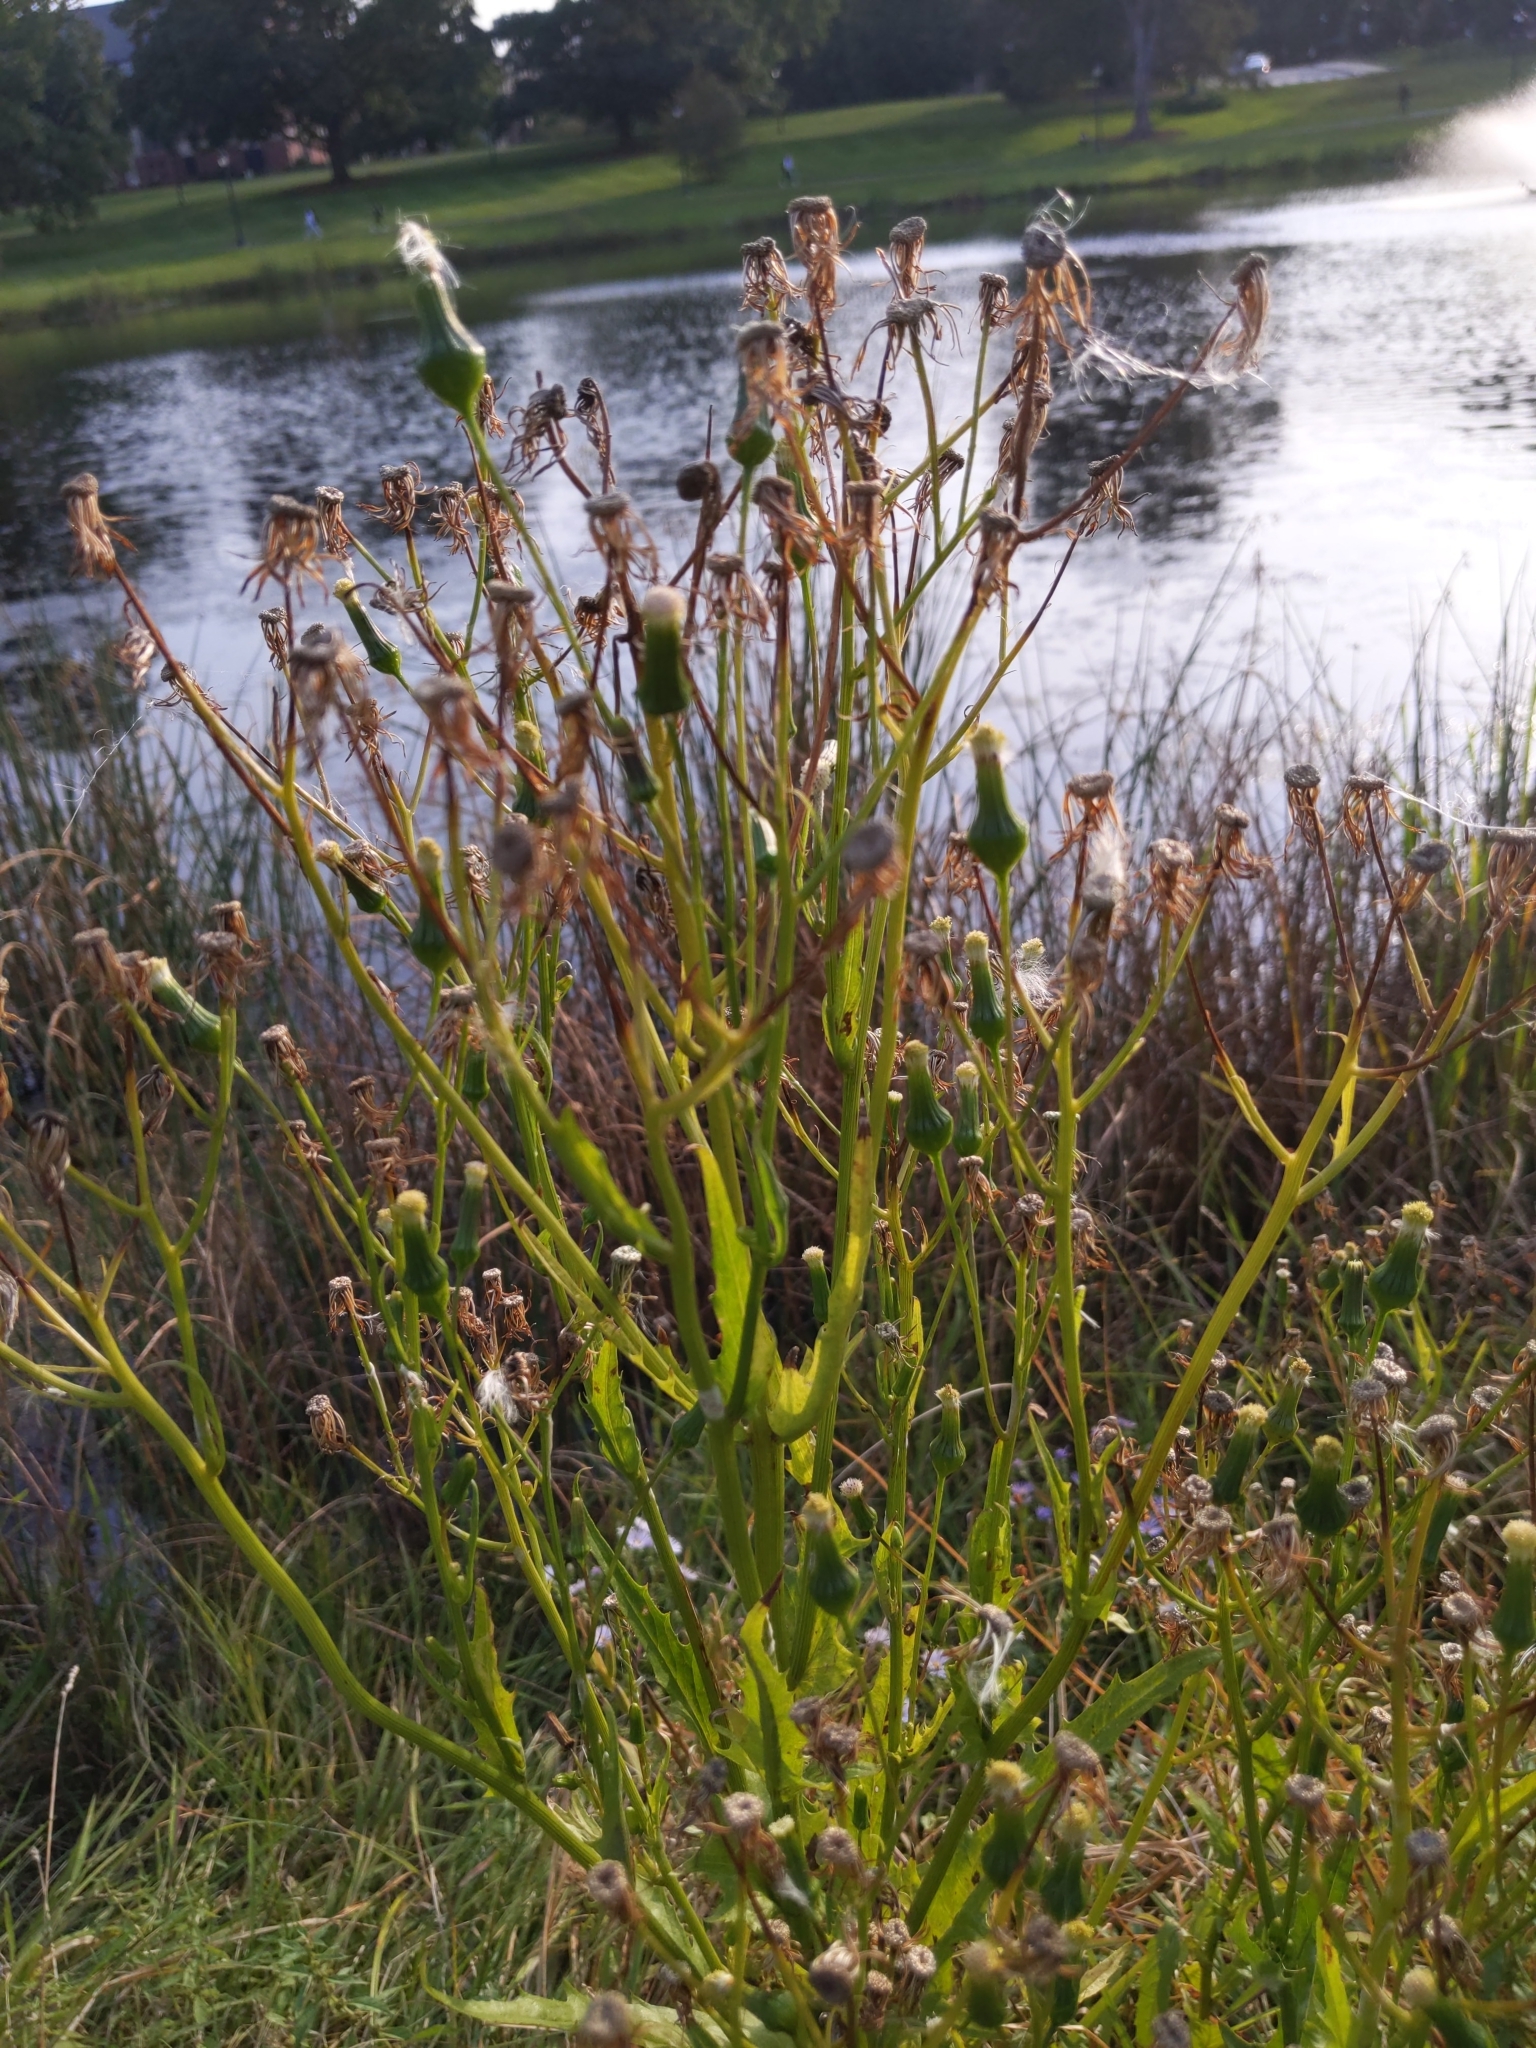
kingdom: Plantae
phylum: Tracheophyta
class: Magnoliopsida
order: Asterales
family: Asteraceae
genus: Erechtites
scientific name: Erechtites hieraciifolius
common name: American burnweed
